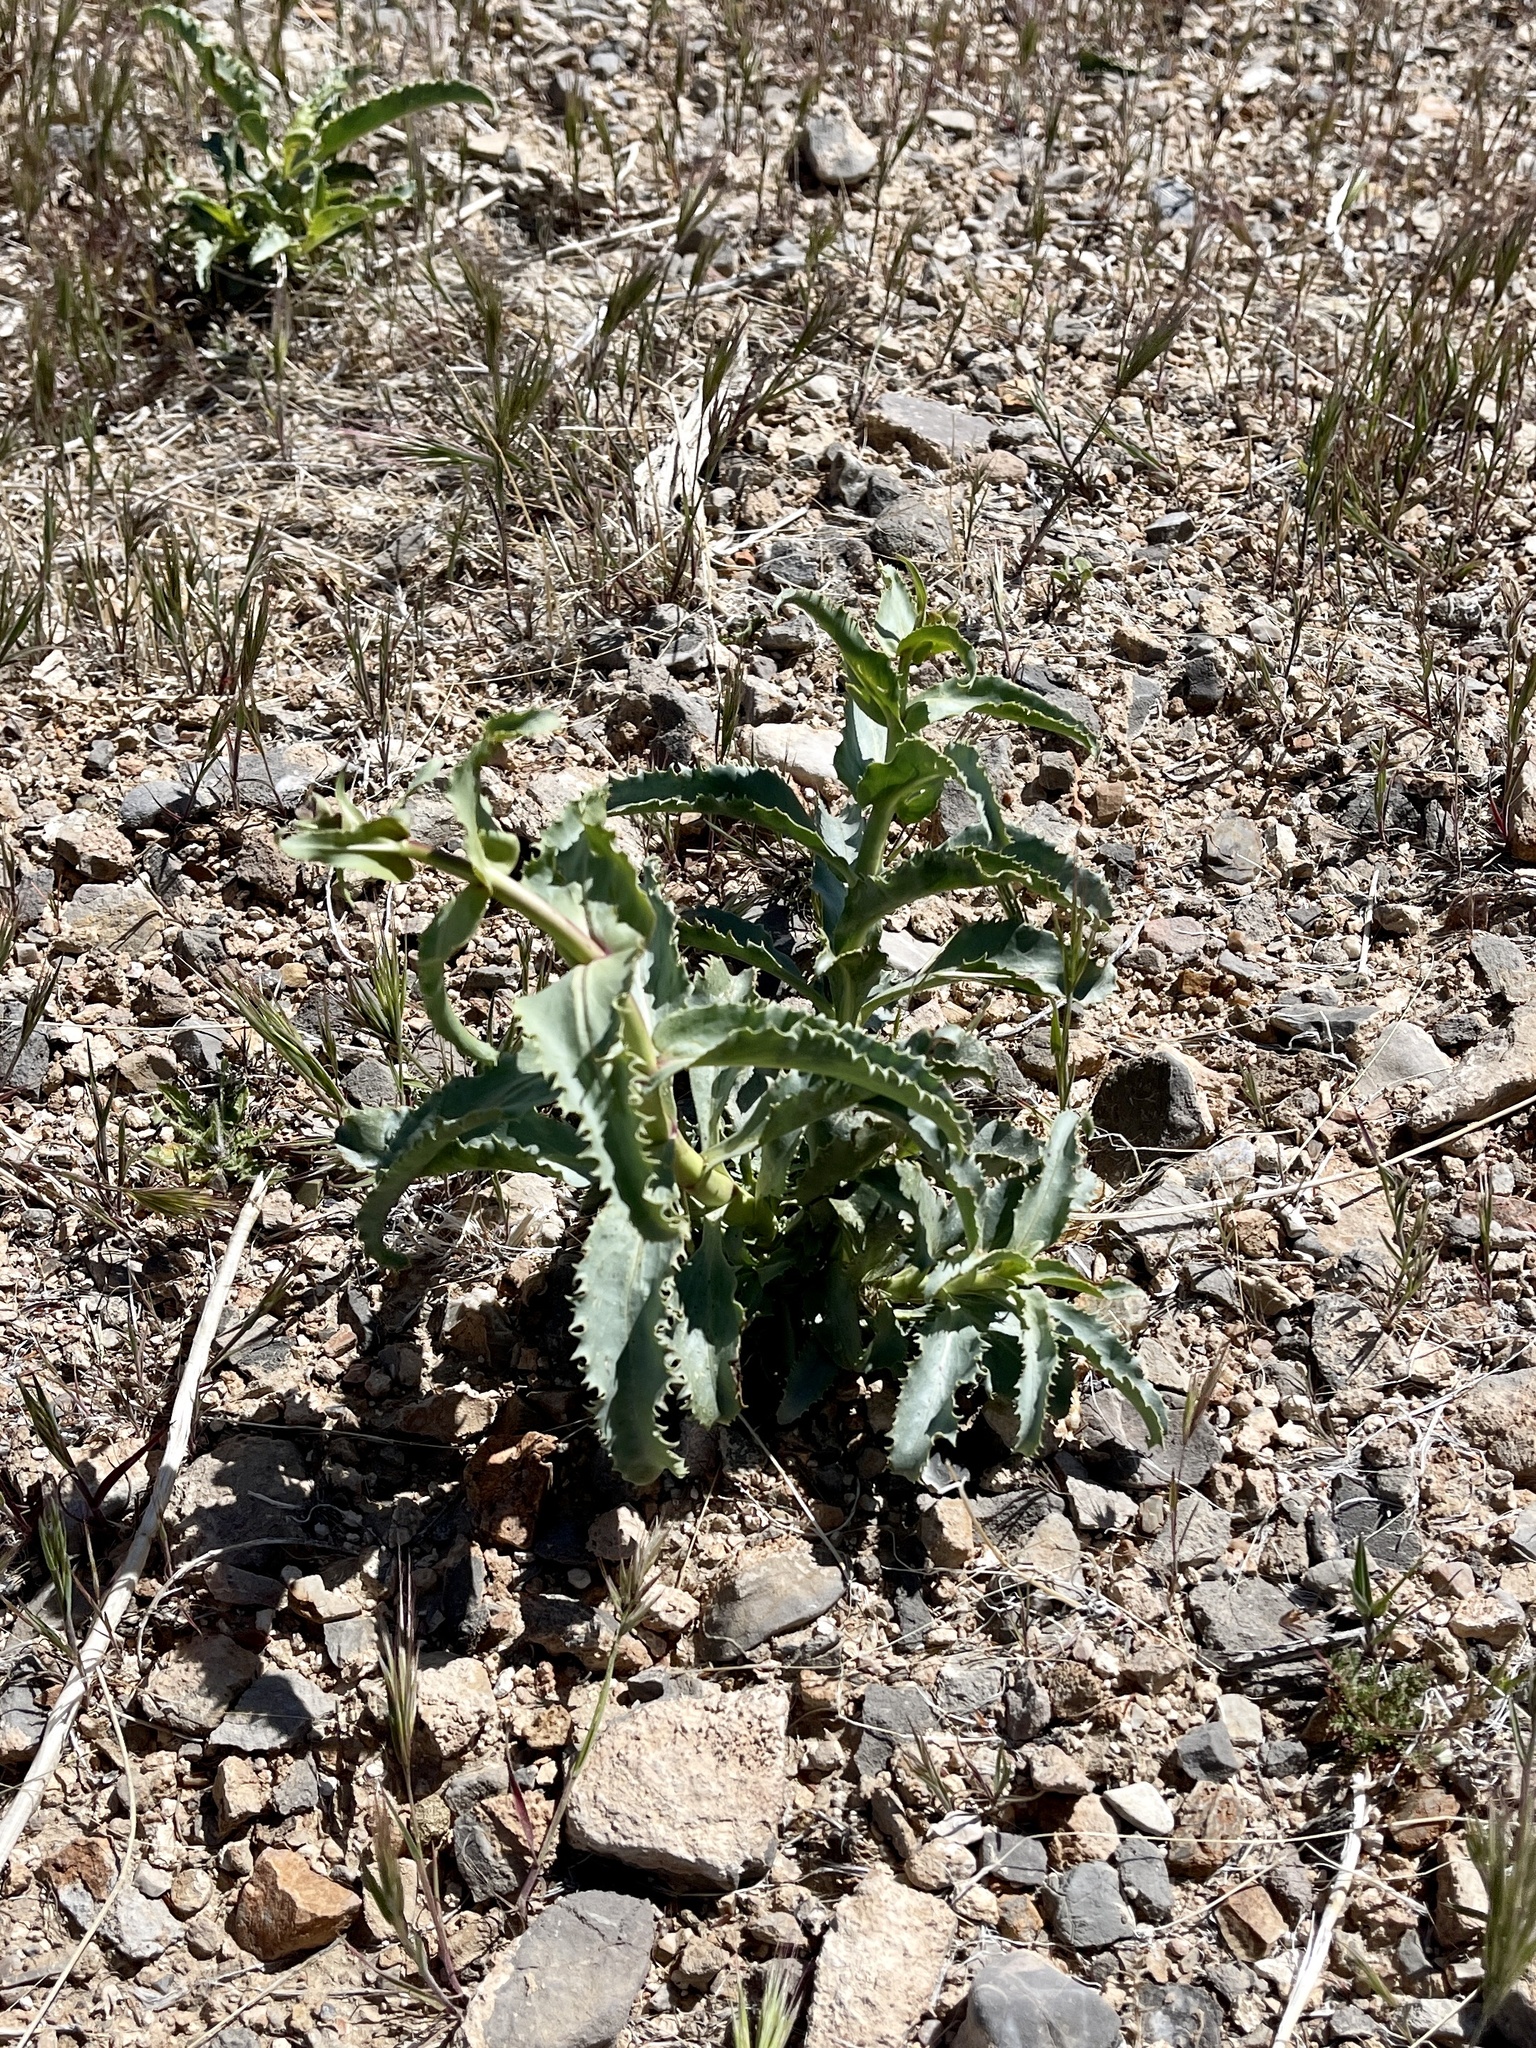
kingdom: Plantae
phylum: Tracheophyta
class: Magnoliopsida
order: Lamiales
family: Plantaginaceae
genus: Penstemon
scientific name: Penstemon palmeri
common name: Palmer penstemon
